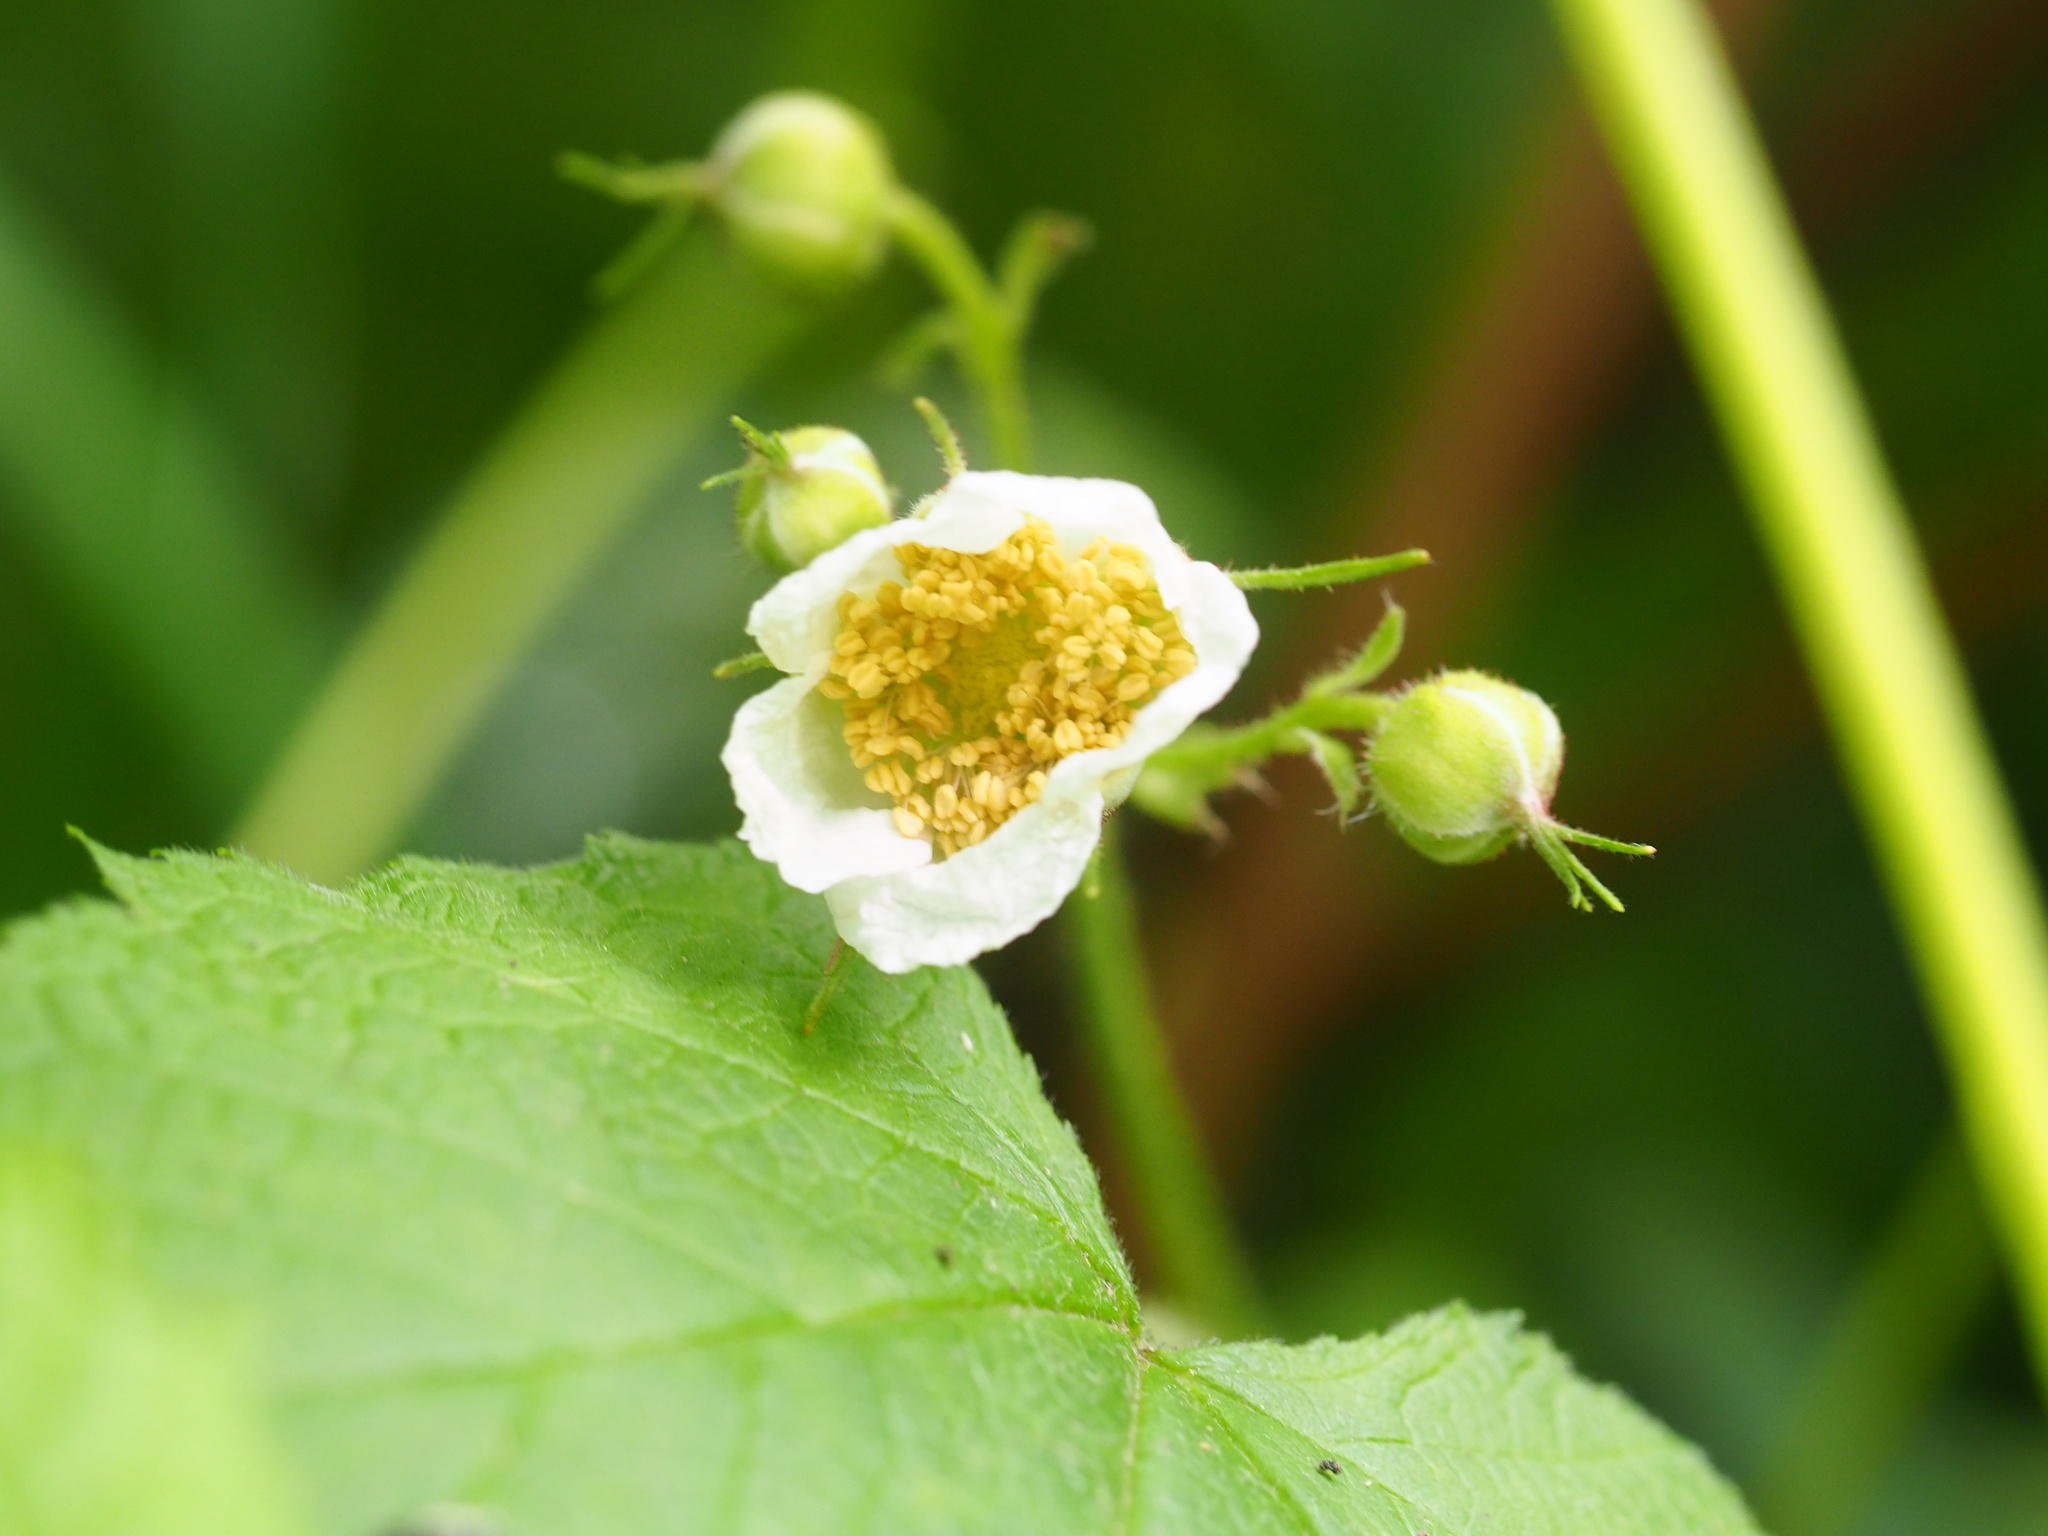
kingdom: Plantae
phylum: Tracheophyta
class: Magnoliopsida
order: Rosales
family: Rosaceae
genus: Rubus
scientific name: Rubus parviflorus
